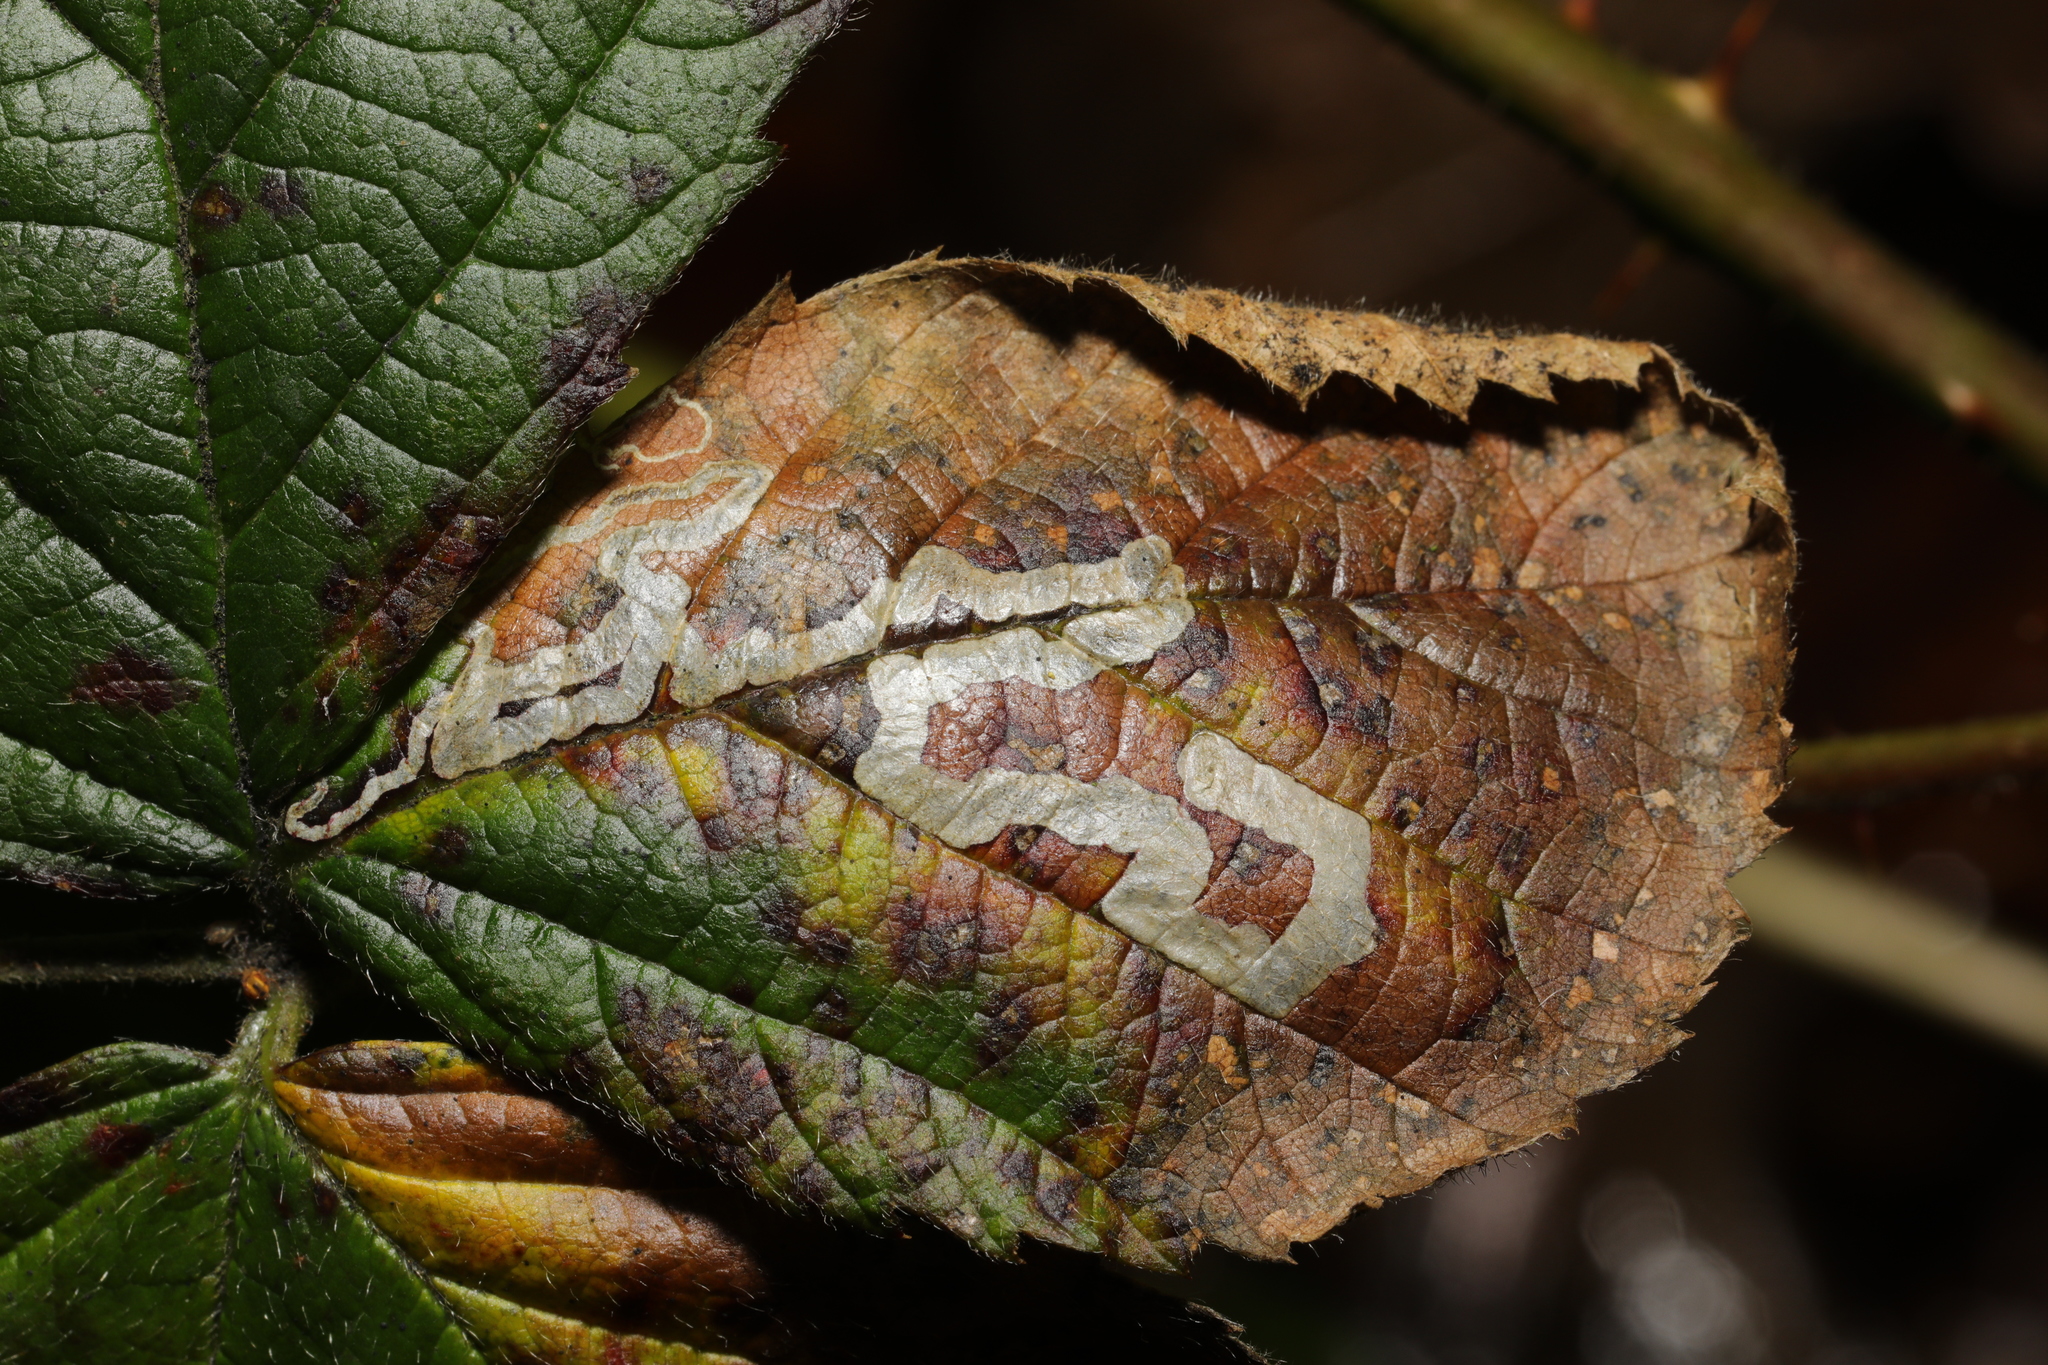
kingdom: Animalia
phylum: Arthropoda
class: Insecta
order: Lepidoptera
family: Nepticulidae
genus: Stigmella
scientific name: Stigmella aurella
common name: Golden pigmy
